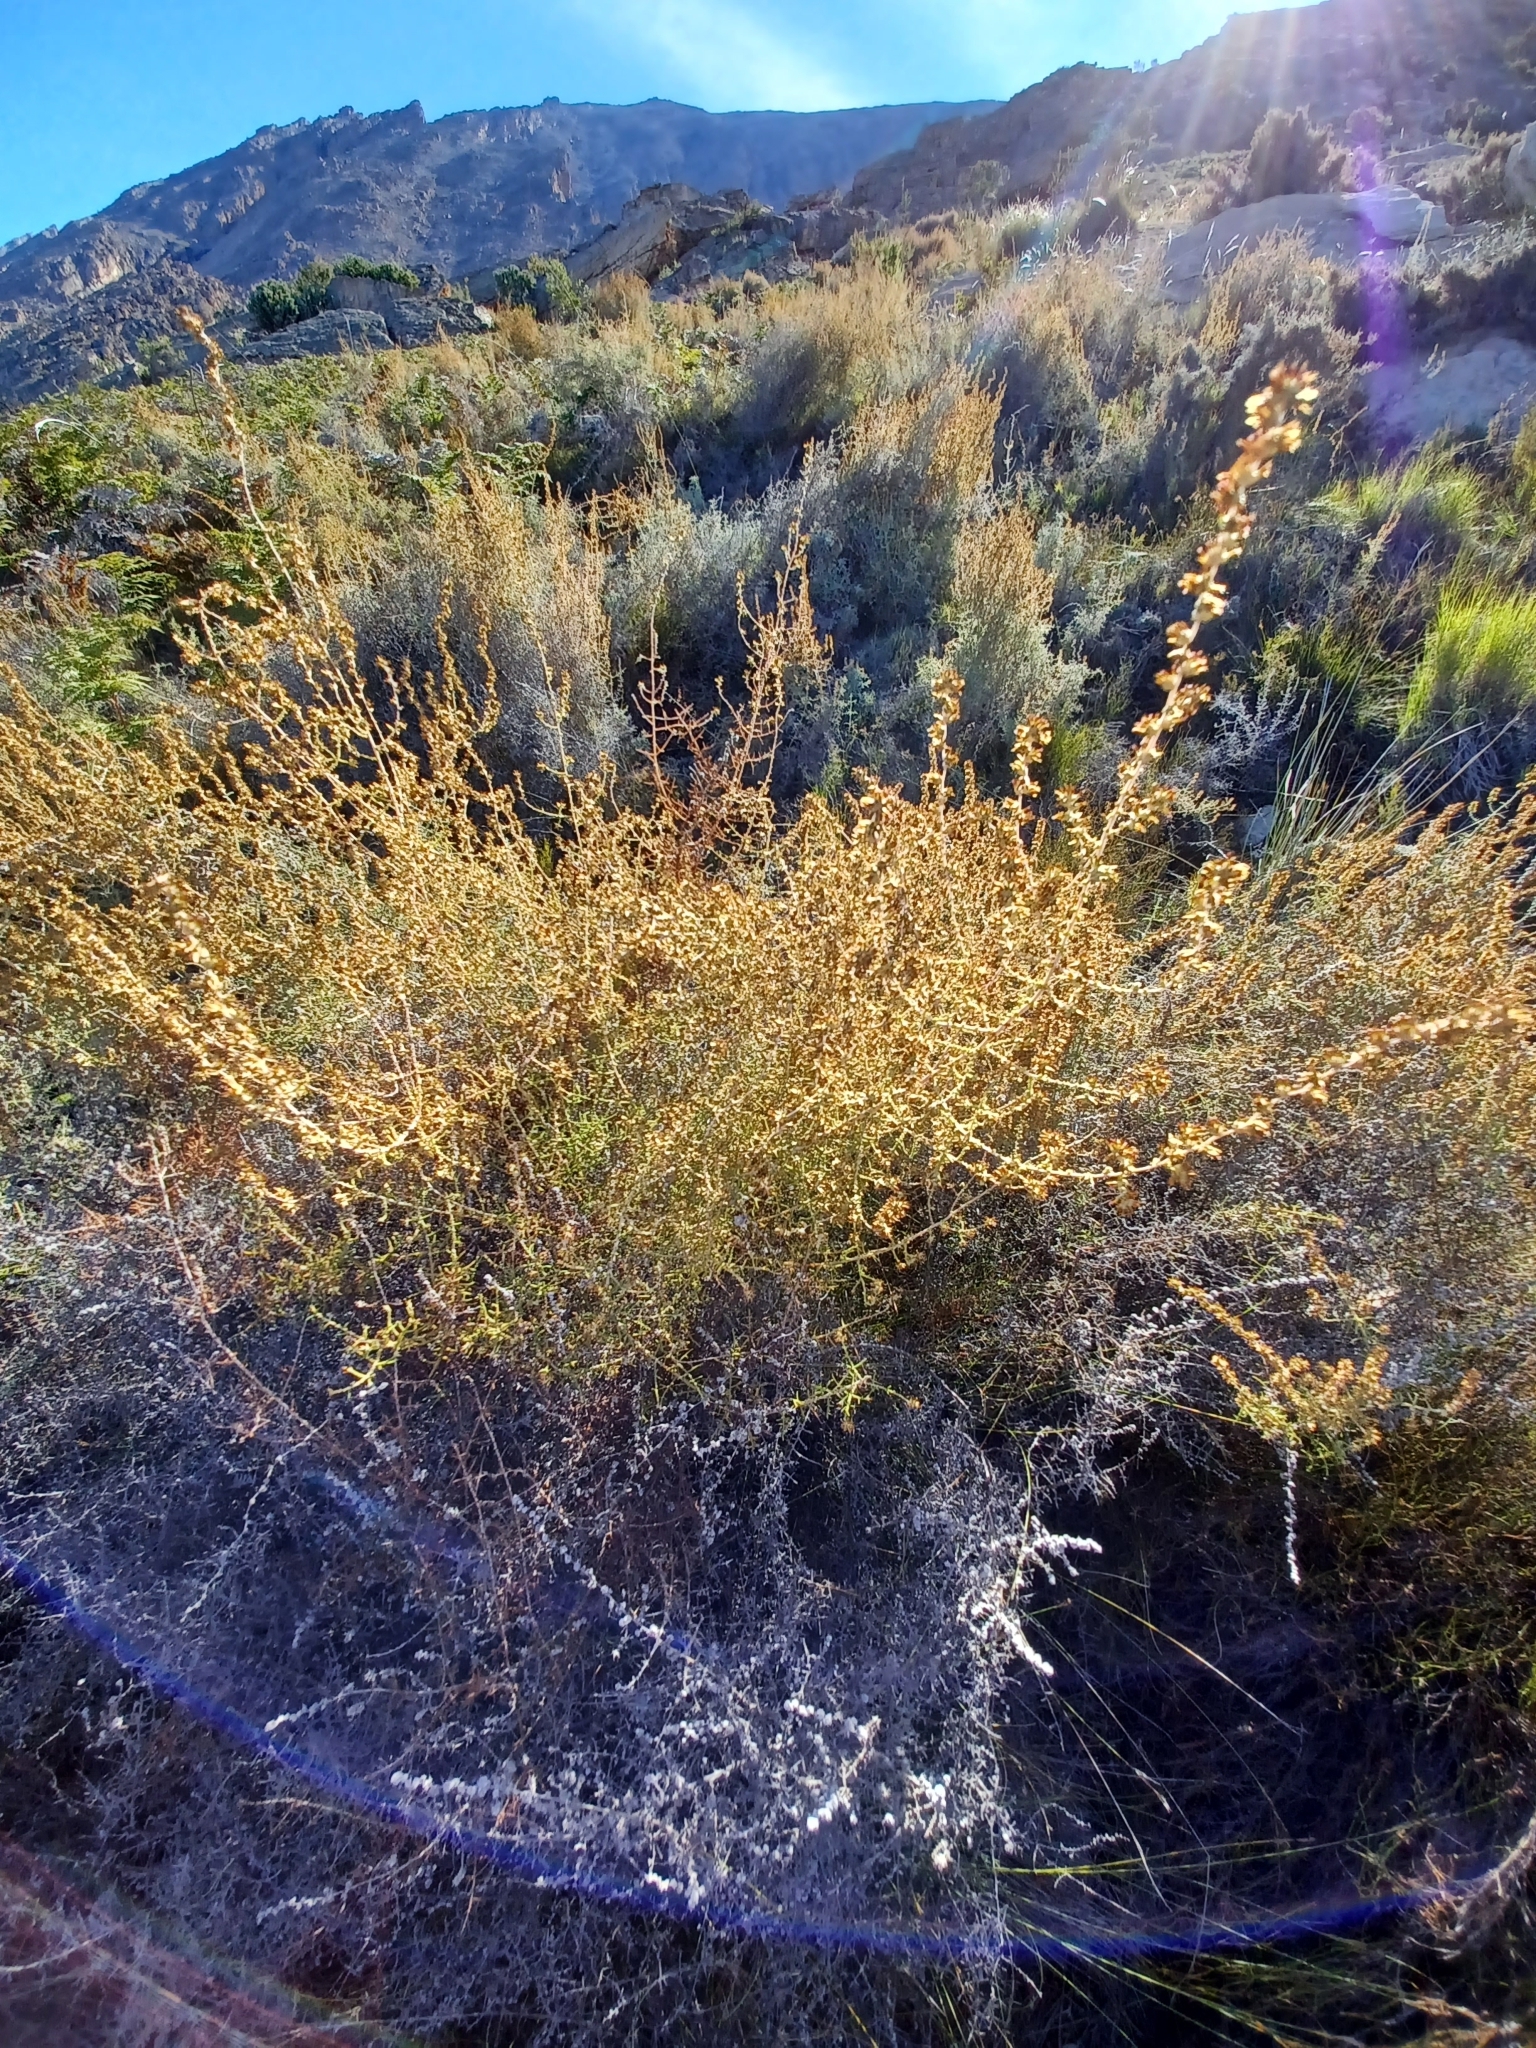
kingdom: Plantae
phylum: Tracheophyta
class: Magnoliopsida
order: Asterales
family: Asteraceae
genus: Seriphium
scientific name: Seriphium plumosum
